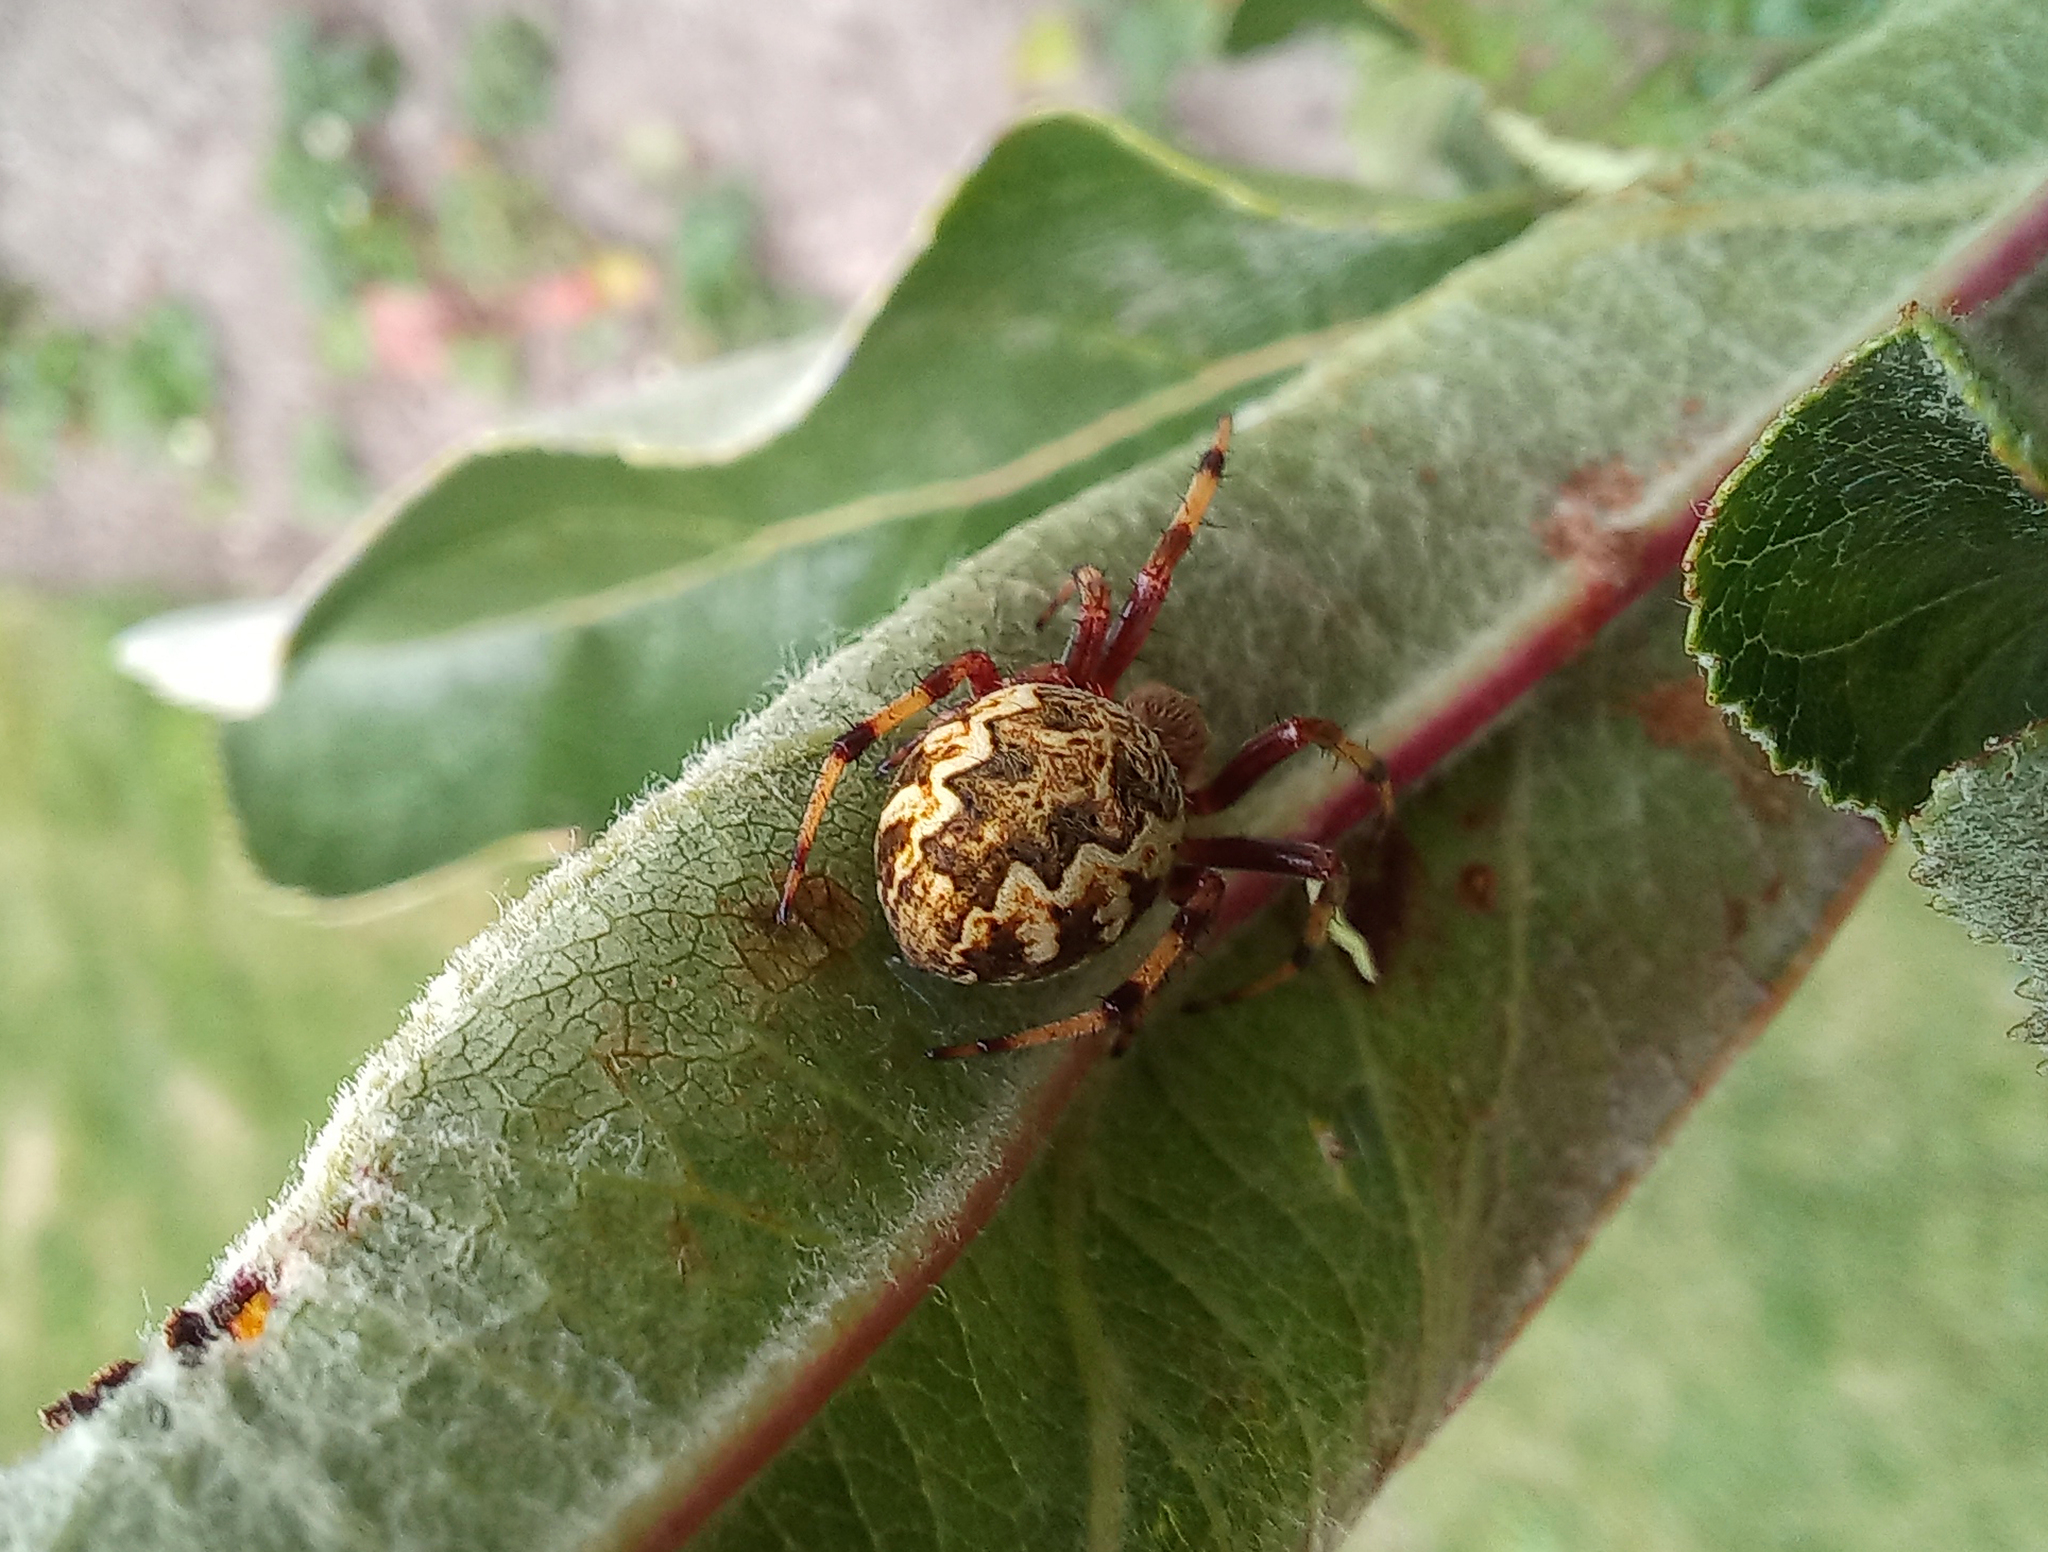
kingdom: Animalia
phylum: Arthropoda
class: Arachnida
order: Araneae
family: Araneidae
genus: Salsa
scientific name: Salsa fuliginata
